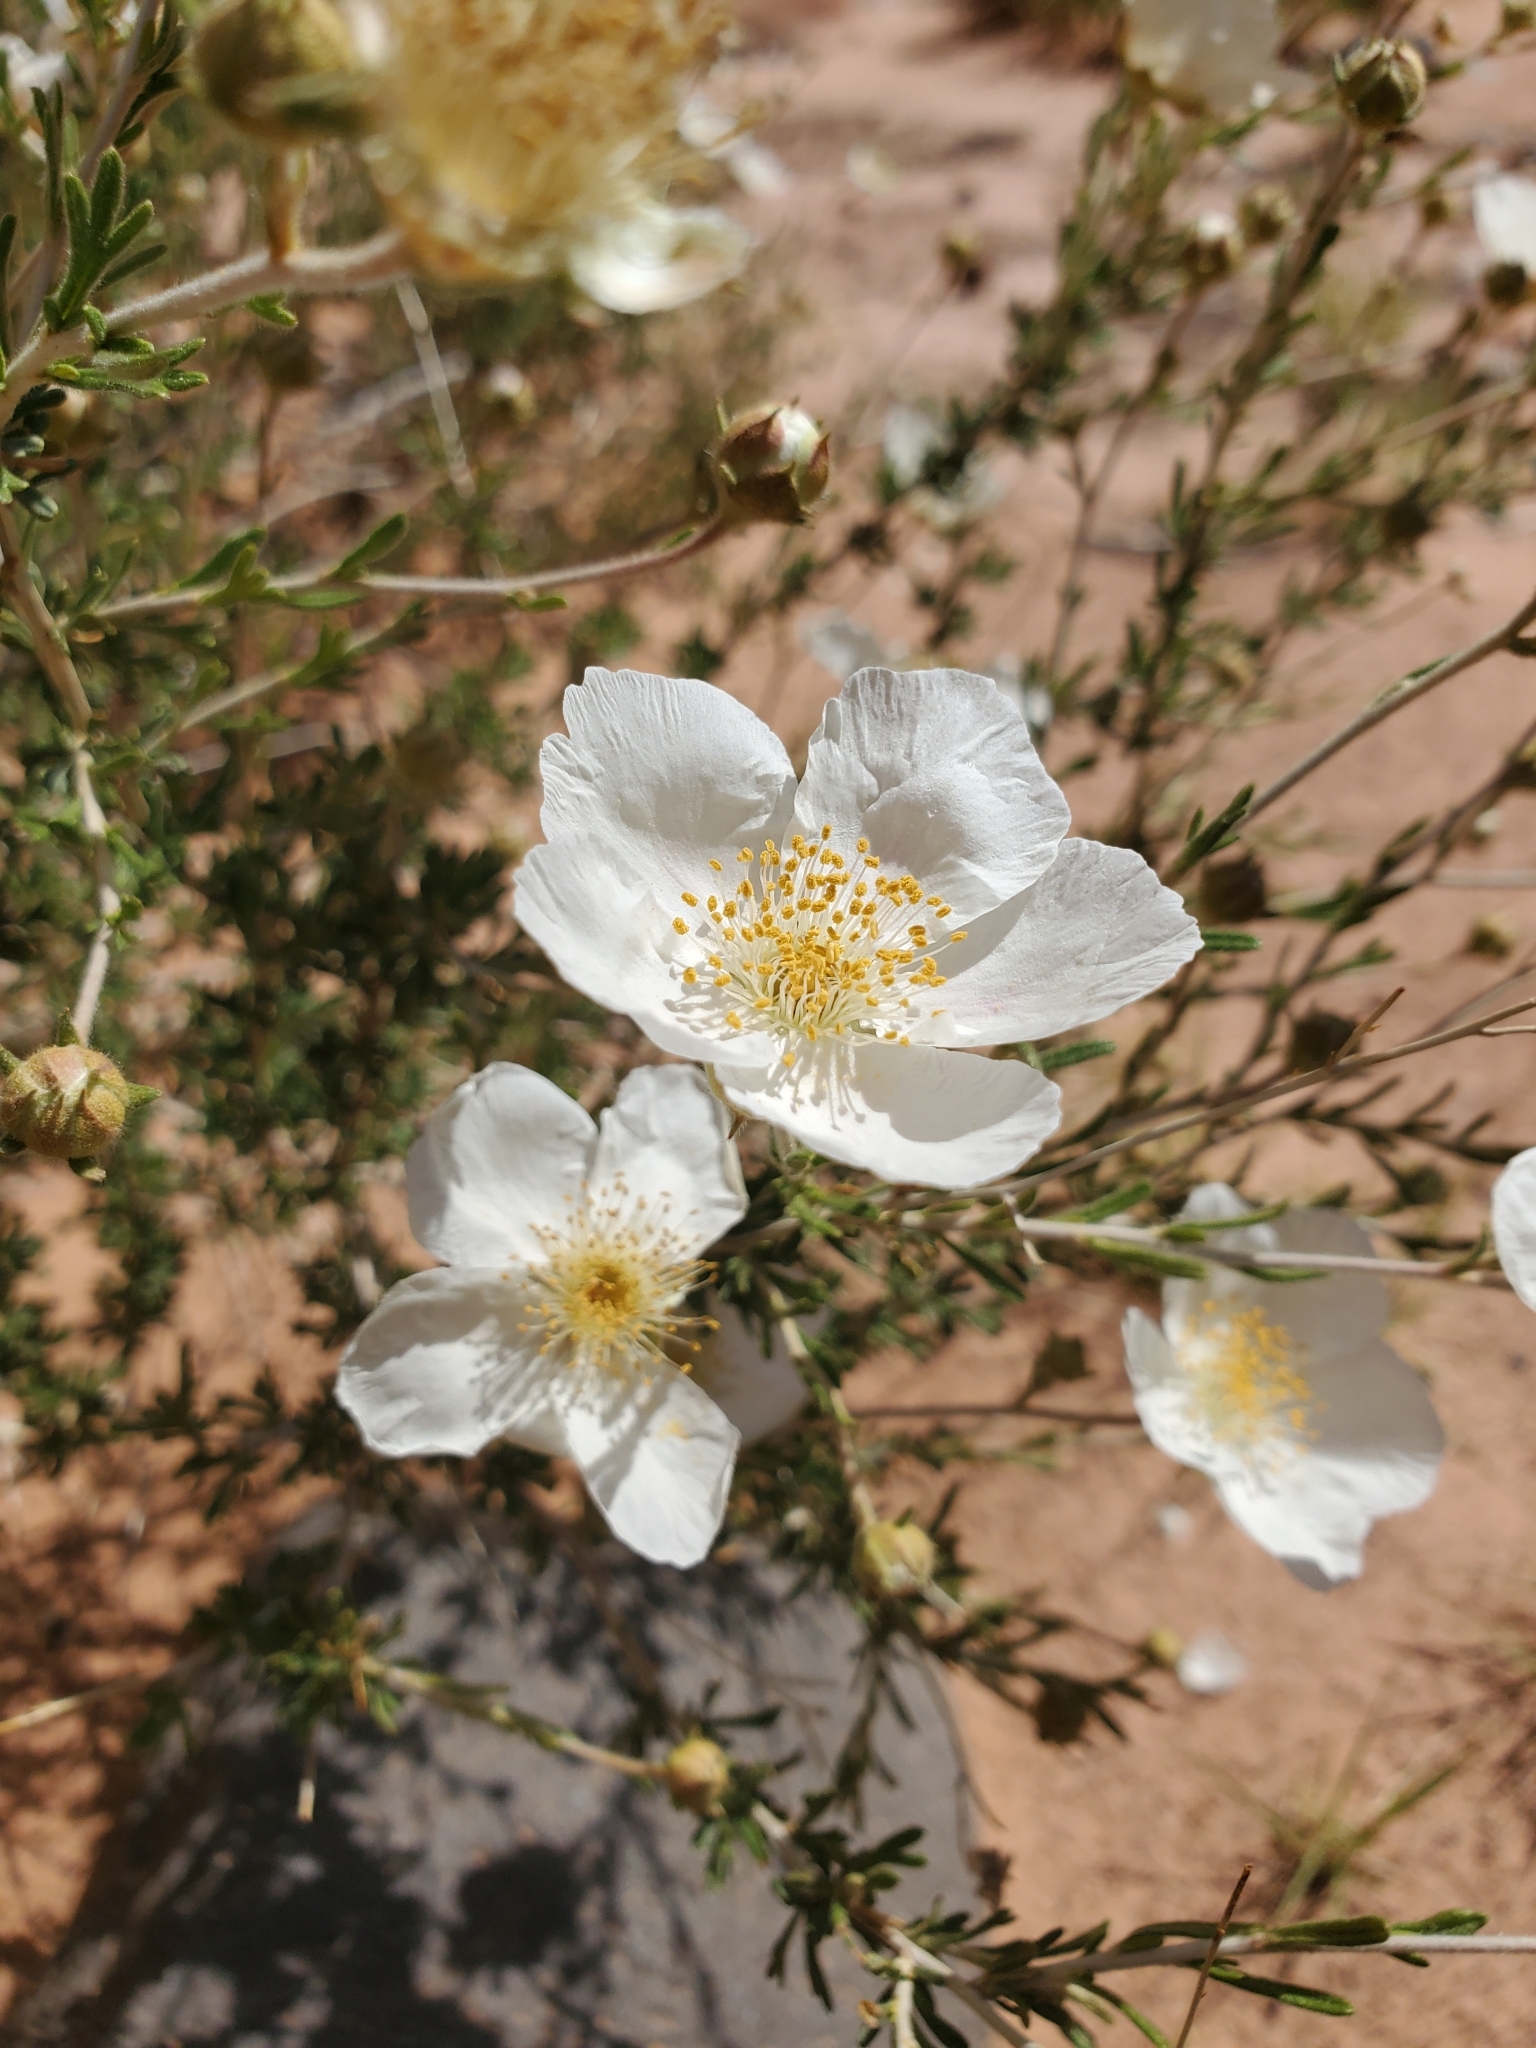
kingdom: Plantae
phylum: Tracheophyta
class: Magnoliopsida
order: Rosales
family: Rosaceae
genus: Fallugia
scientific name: Fallugia paradoxa
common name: Apache-plume
